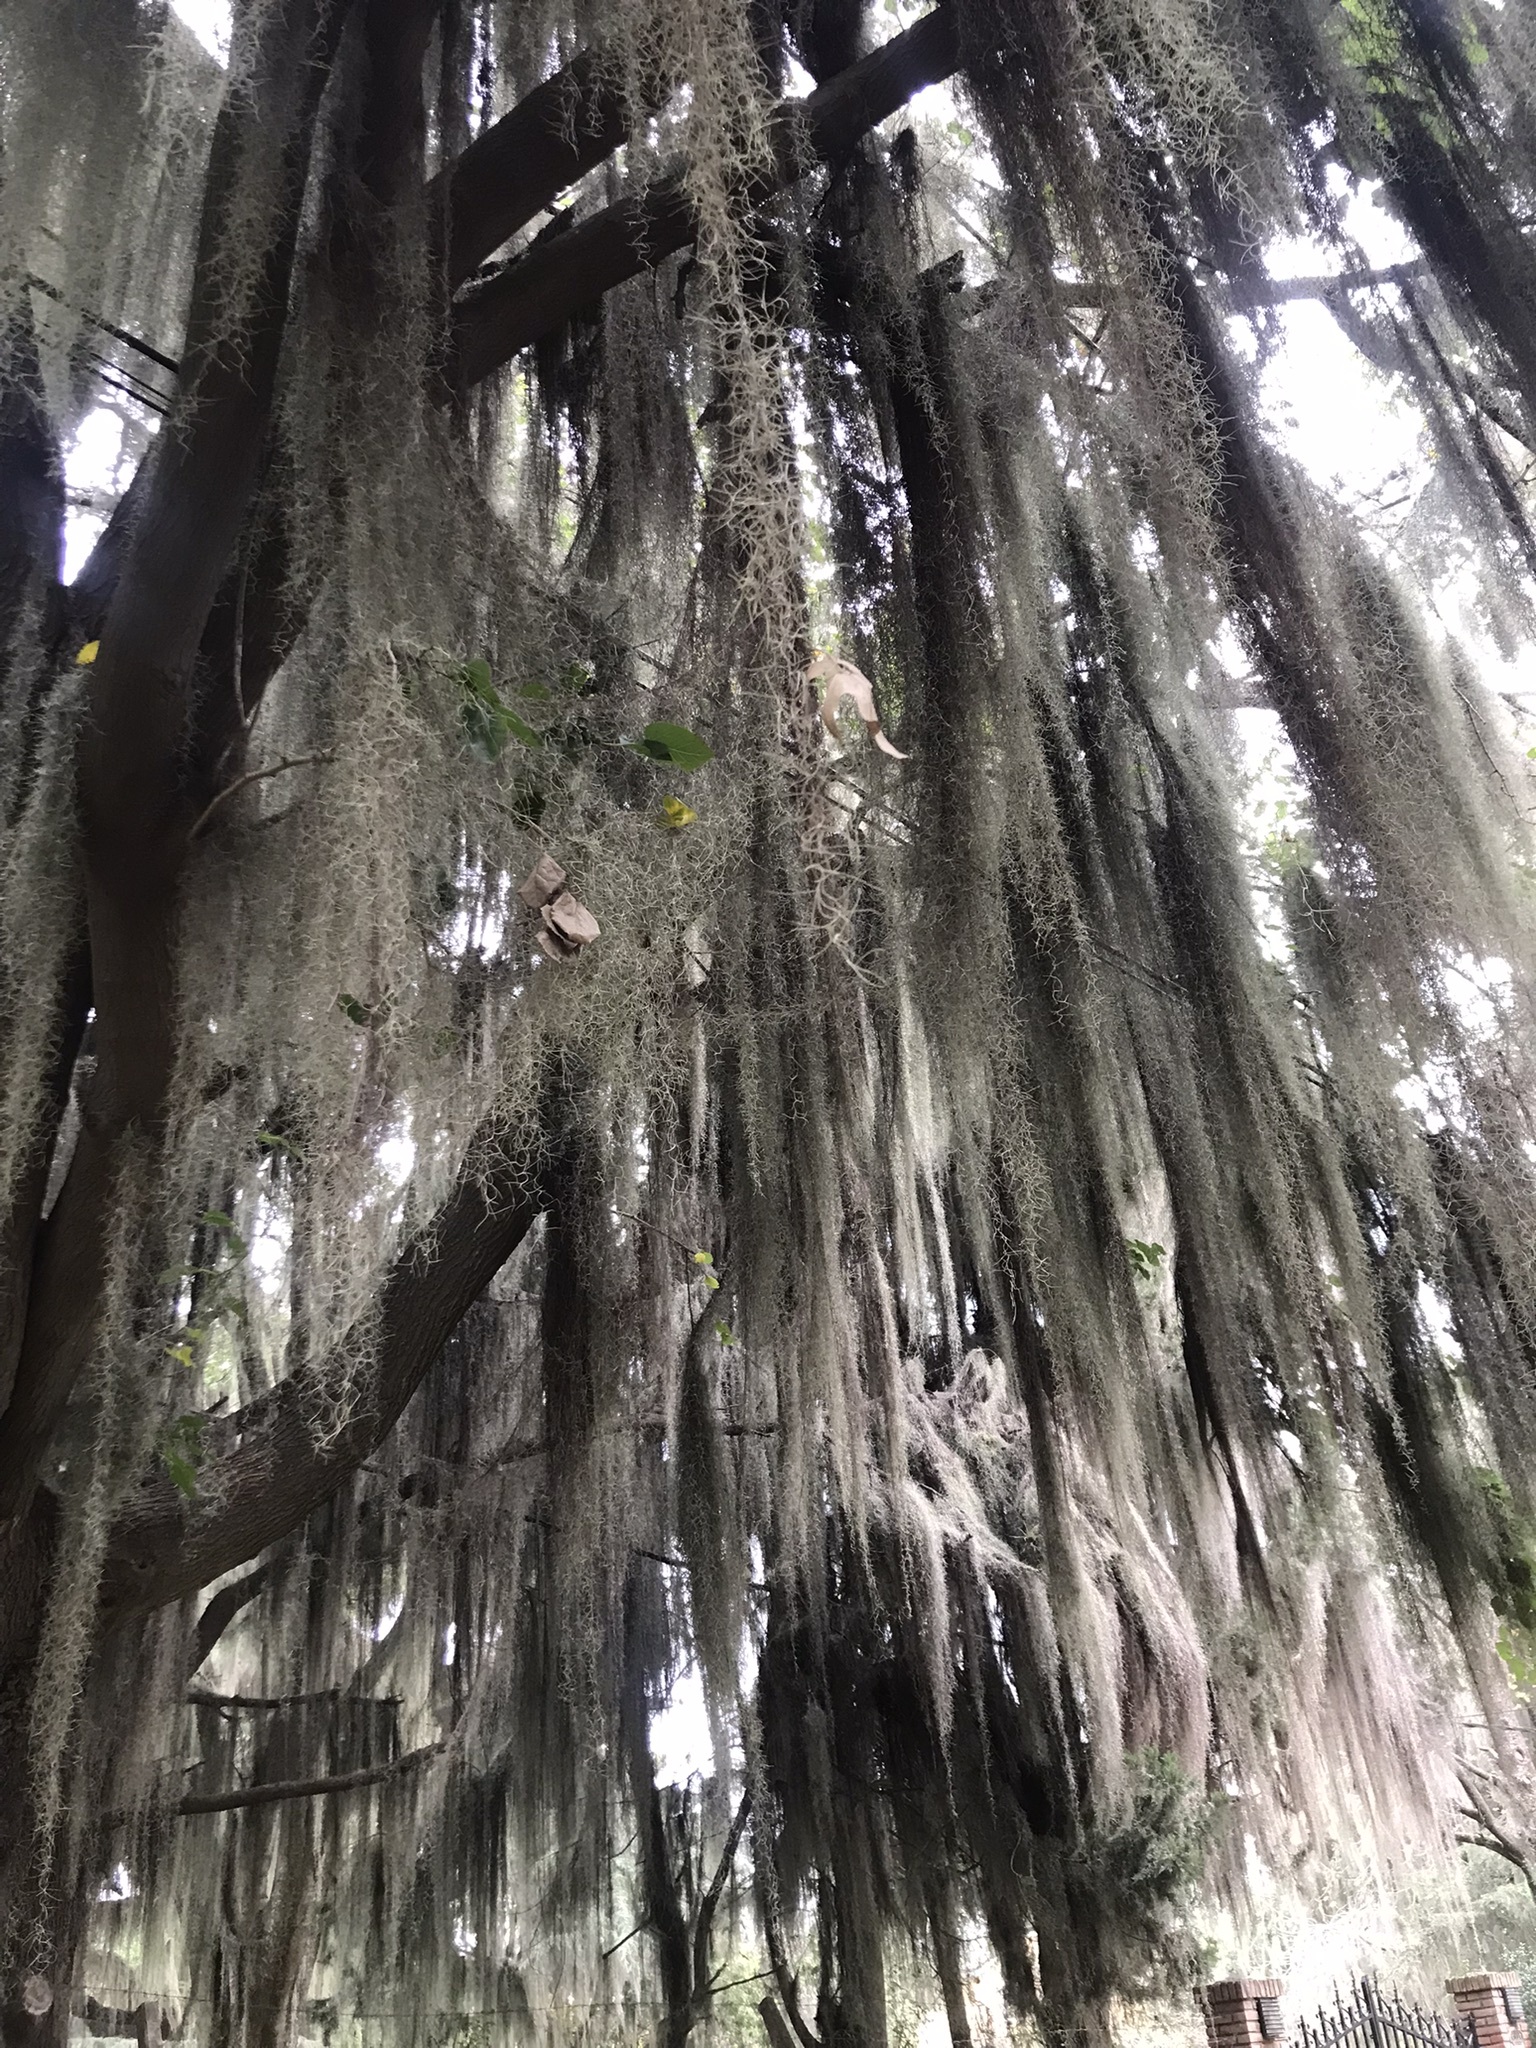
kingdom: Plantae
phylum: Tracheophyta
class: Liliopsida
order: Poales
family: Bromeliaceae
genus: Tillandsia
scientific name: Tillandsia usneoides
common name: Spanish moss
